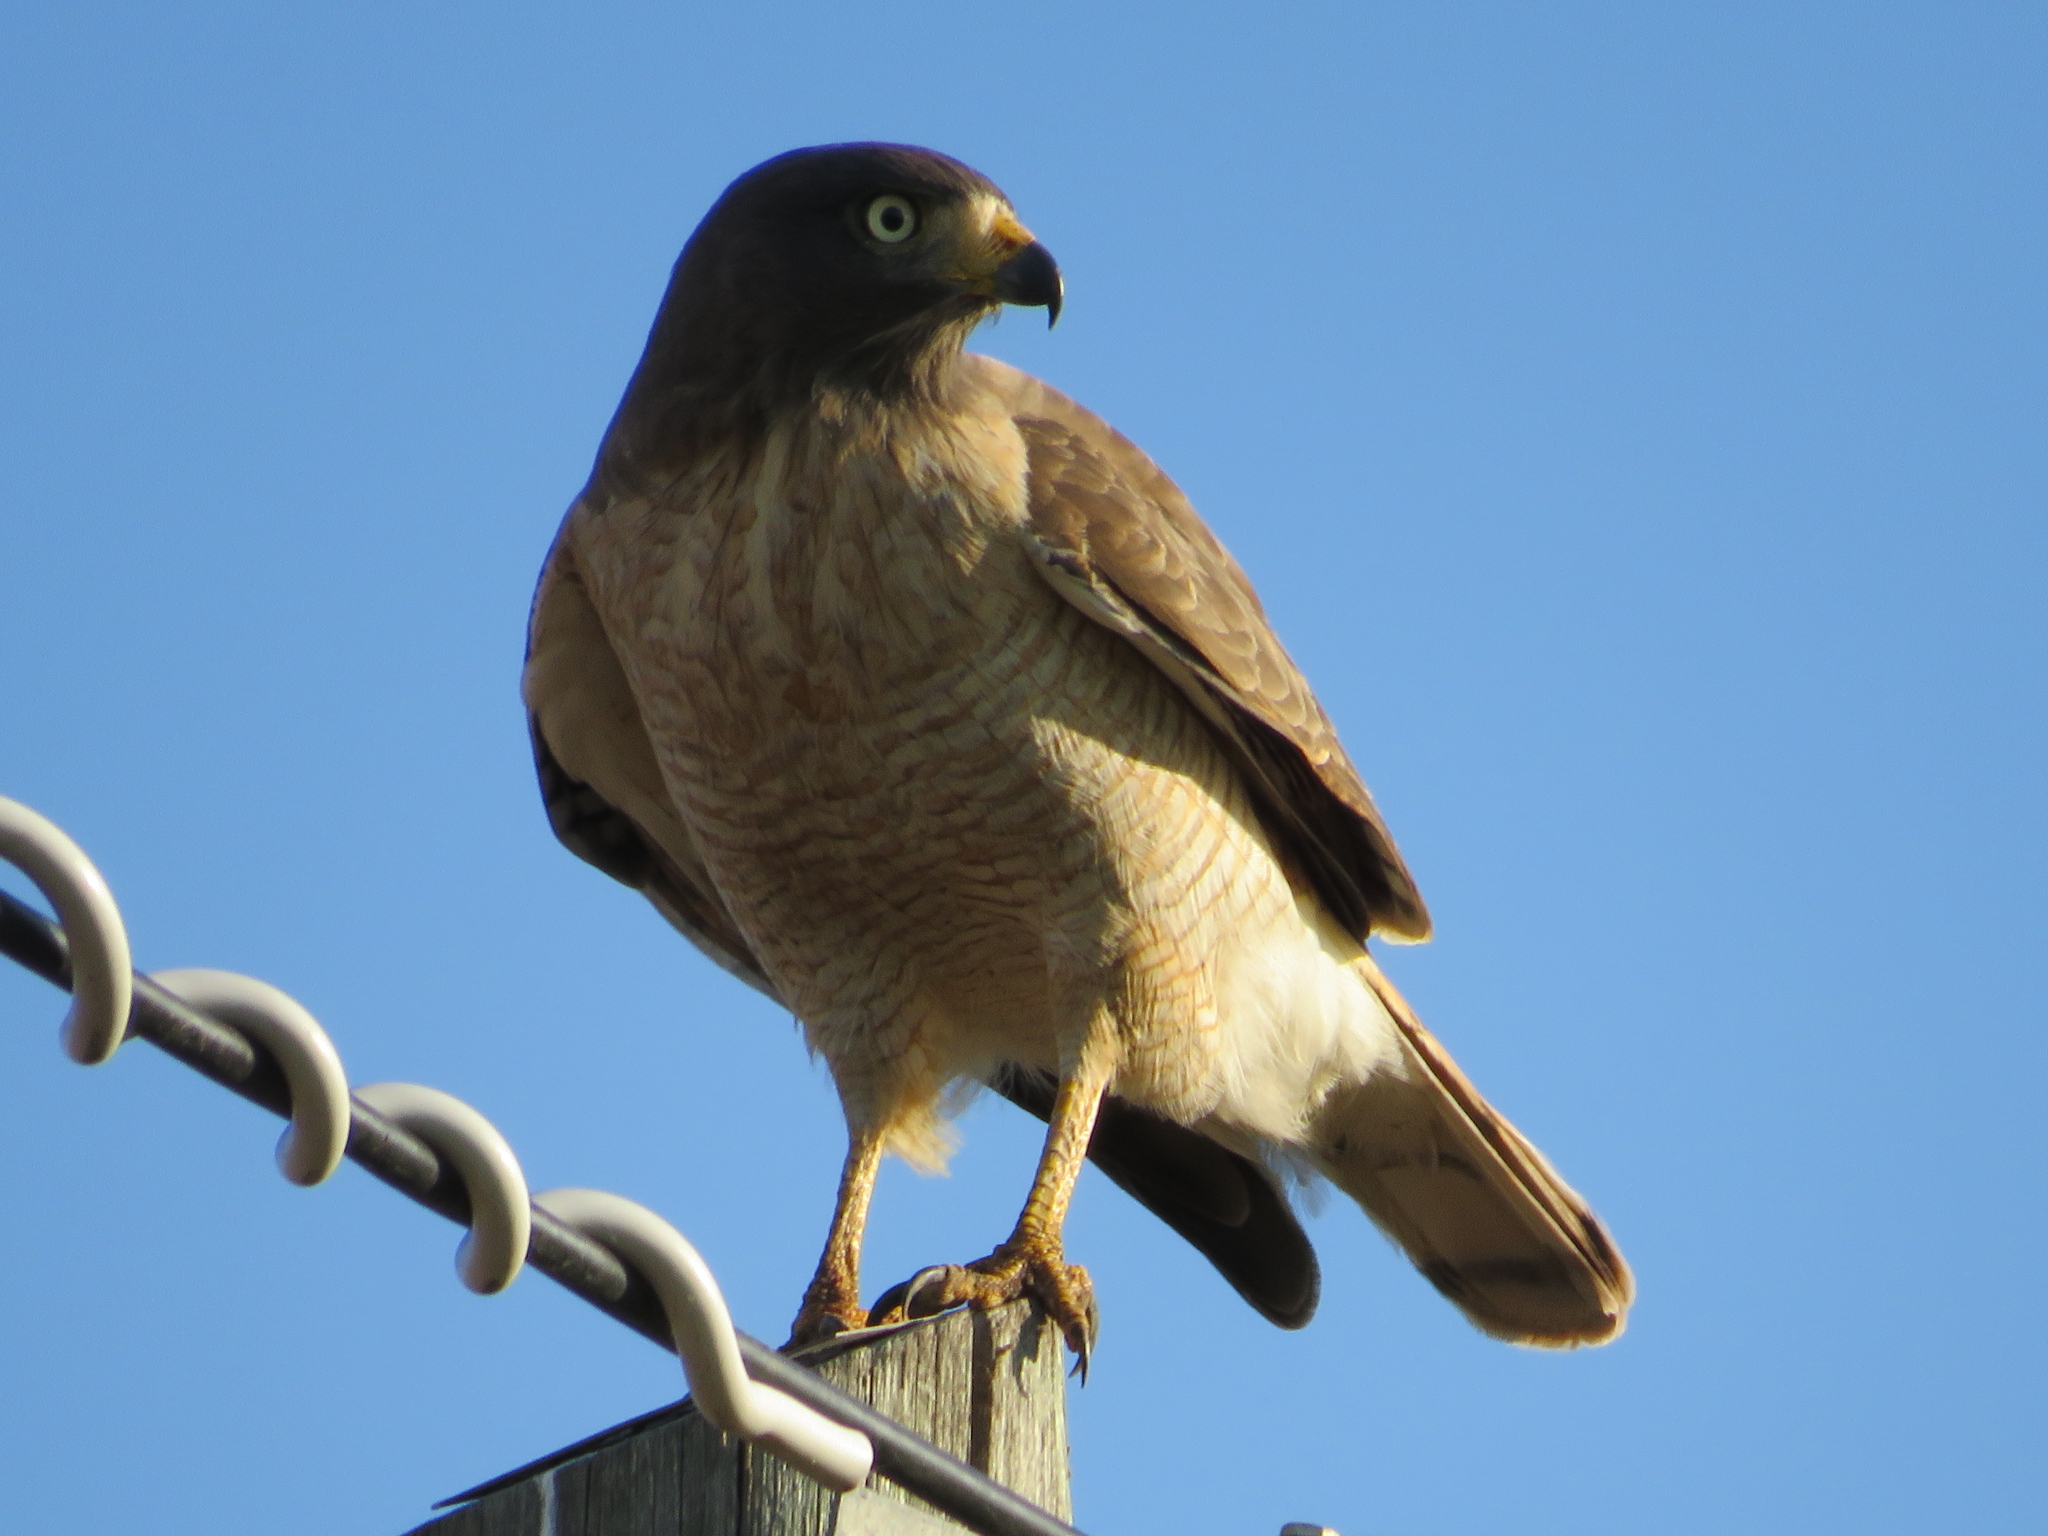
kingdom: Animalia
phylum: Chordata
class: Aves
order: Accipitriformes
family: Accipitridae
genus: Rupornis
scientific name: Rupornis magnirostris
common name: Roadside hawk
